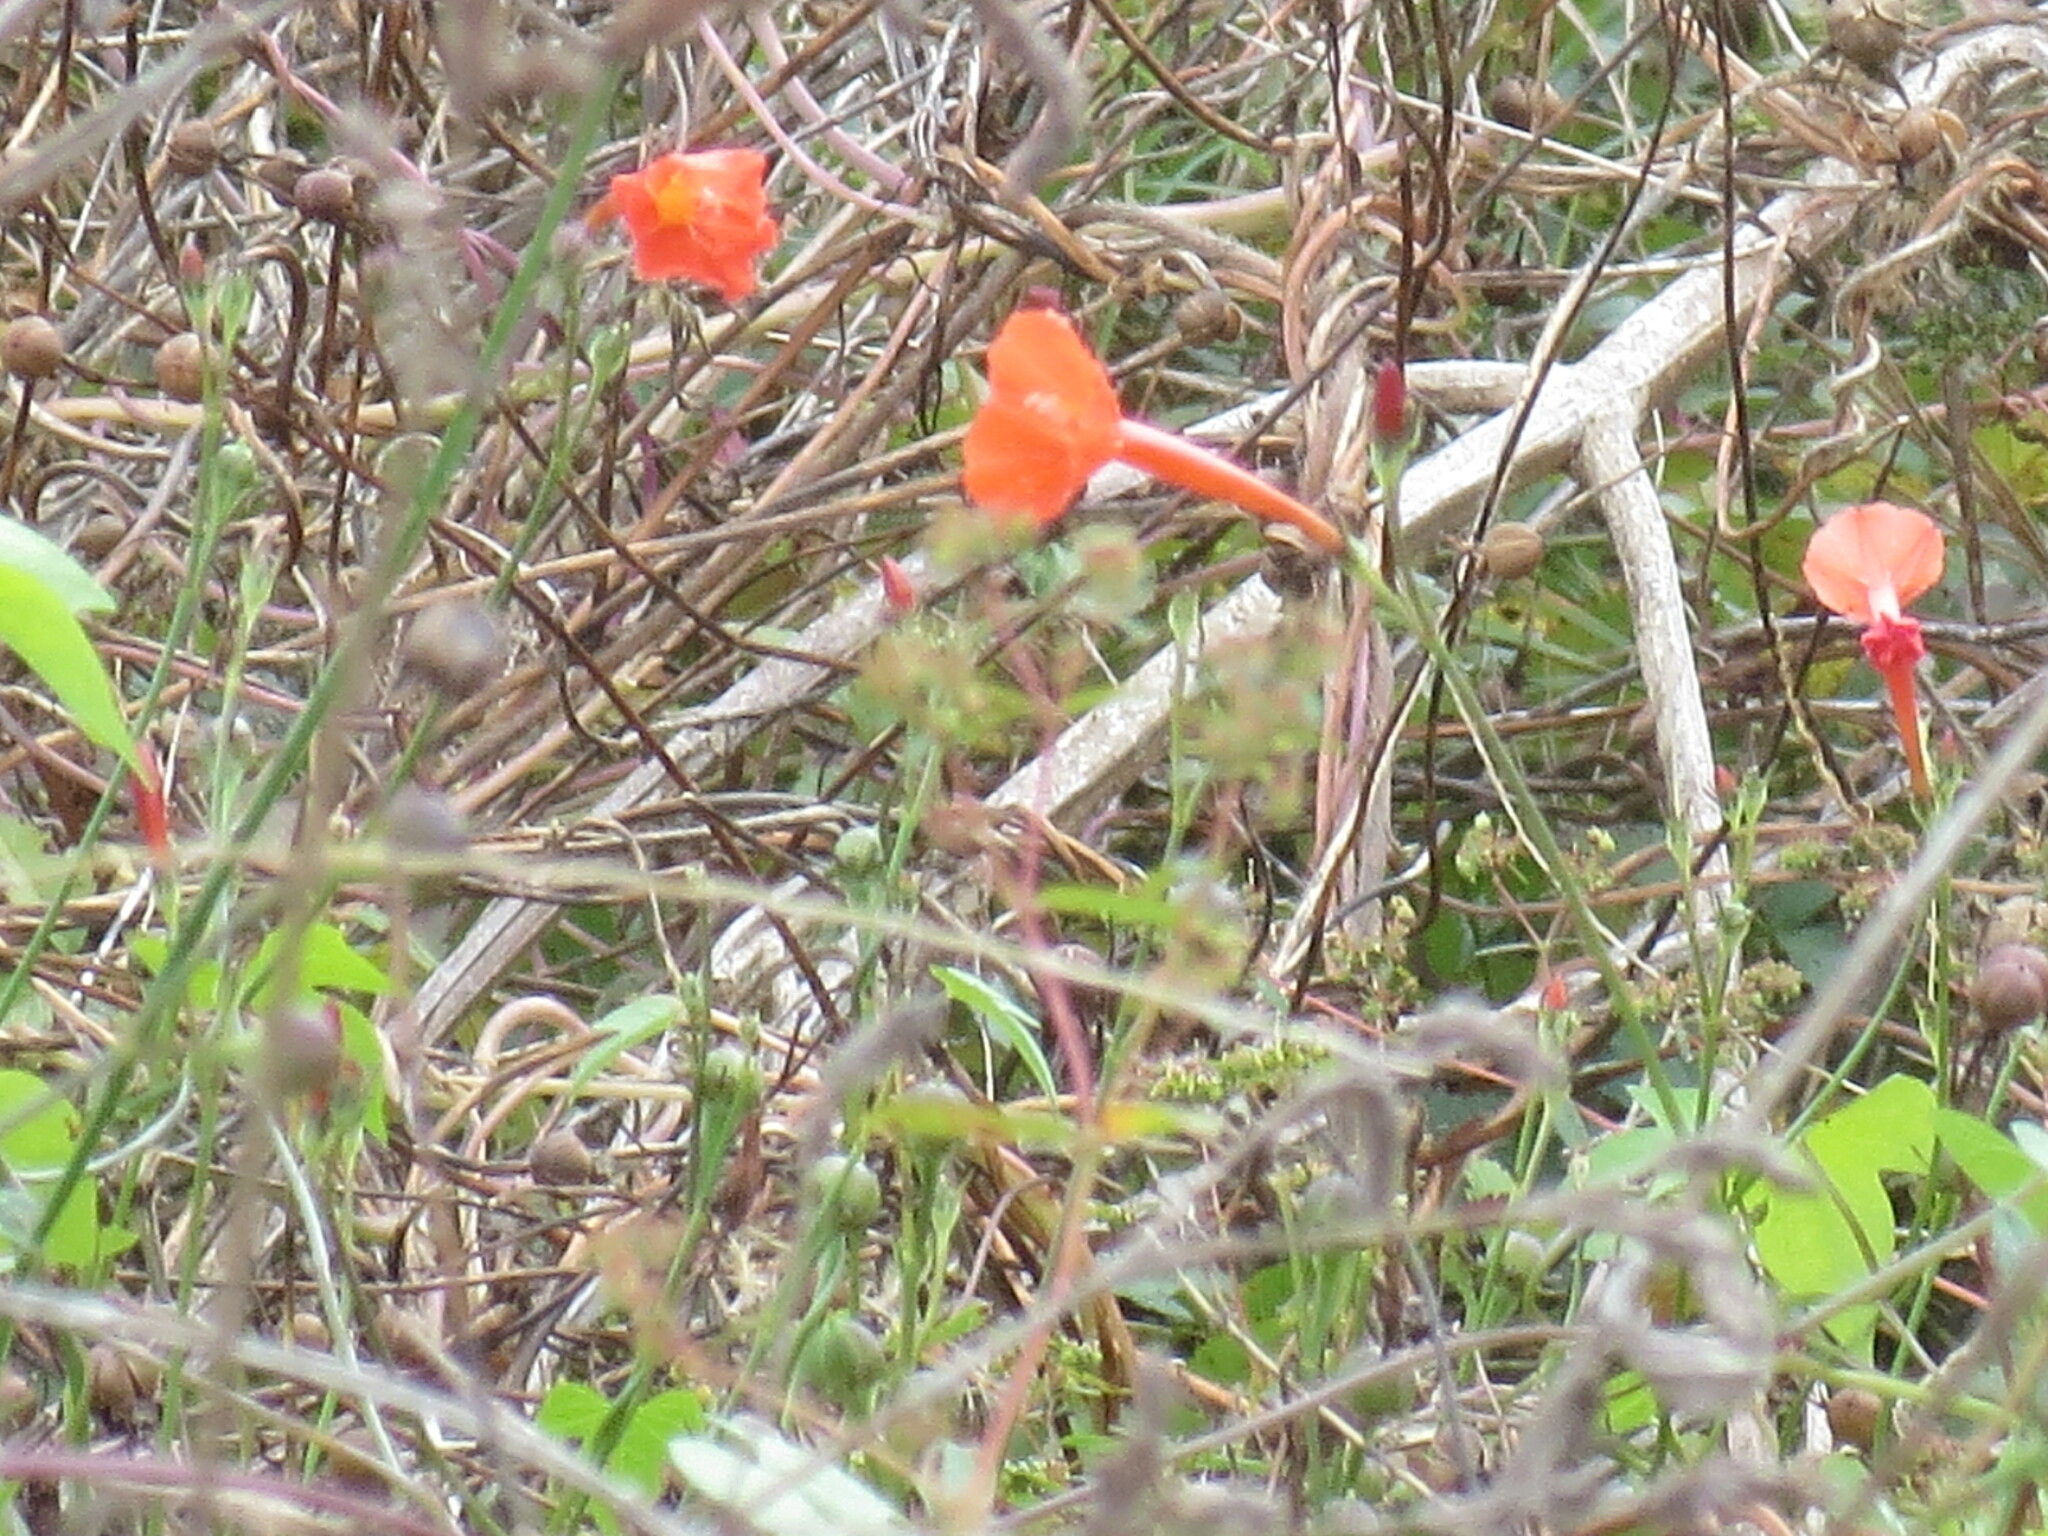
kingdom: Plantae
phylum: Tracheophyta
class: Magnoliopsida
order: Solanales
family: Convolvulaceae
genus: Ipomoea
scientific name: Ipomoea hederifolia
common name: Ivy-leaf morning-glory
